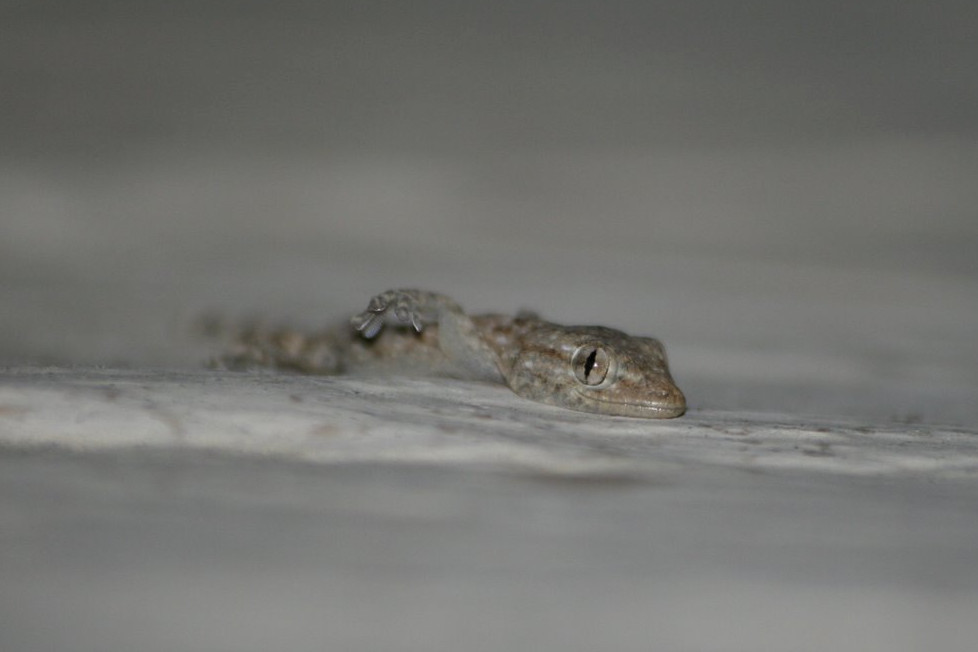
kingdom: Animalia
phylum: Chordata
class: Squamata
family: Phyllodactylidae
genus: Tarentola
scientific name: Tarentola mauritanica
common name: Moorish gecko
